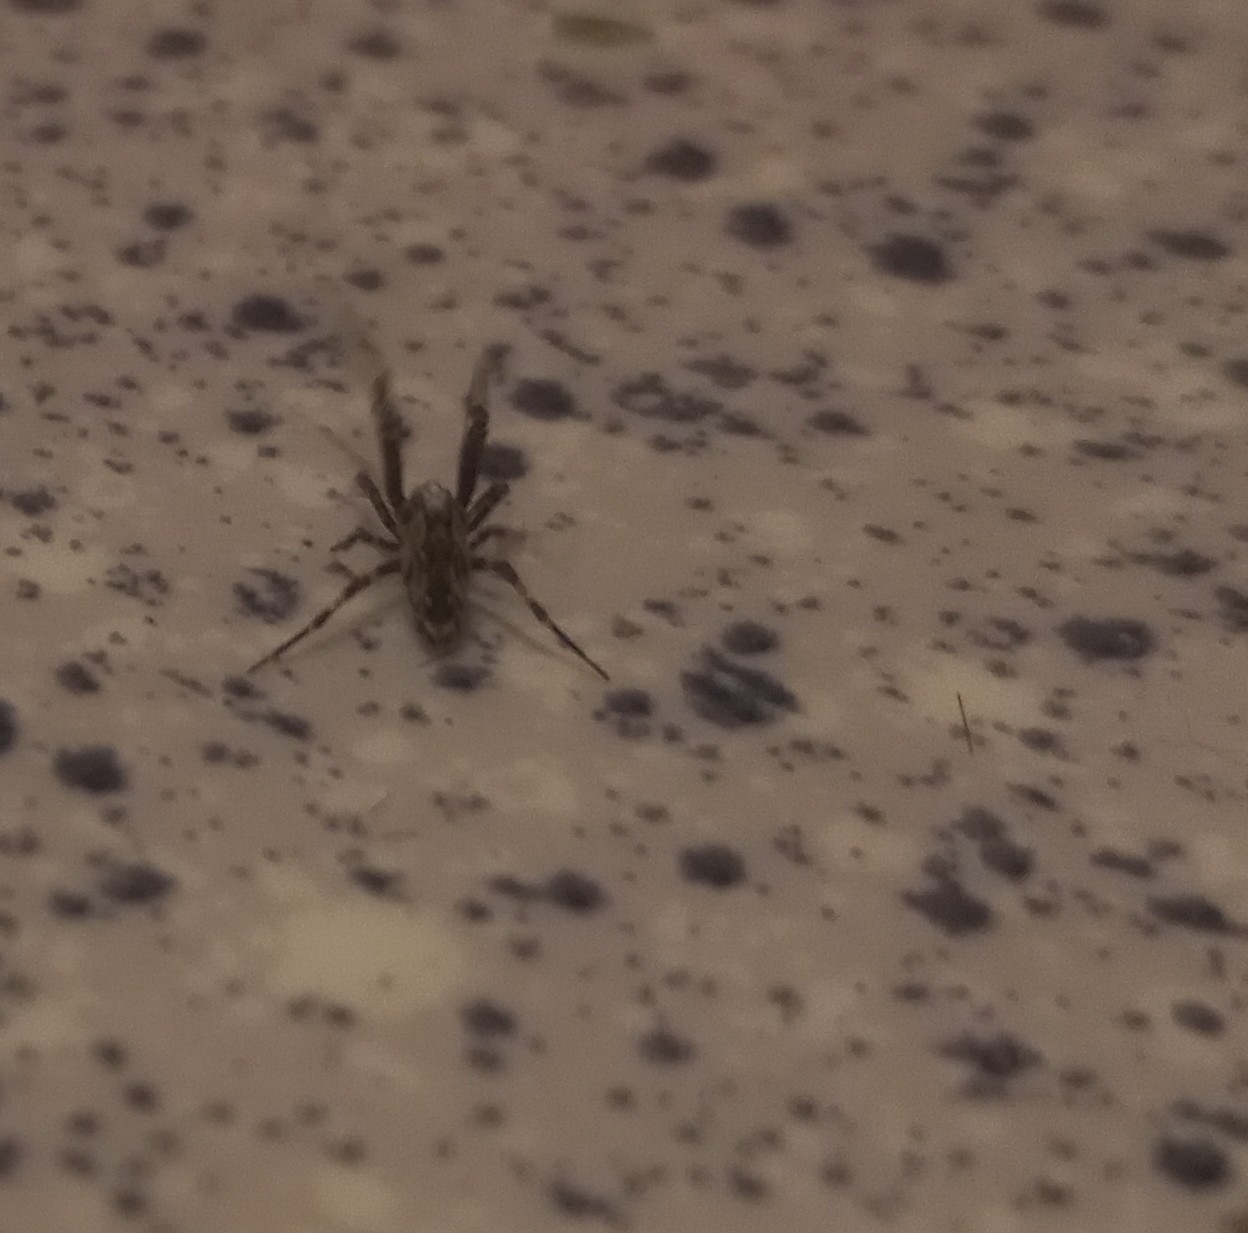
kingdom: Animalia
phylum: Arthropoda
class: Arachnida
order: Araneae
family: Uloboridae
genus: Philoponella
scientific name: Philoponella congregabilis
